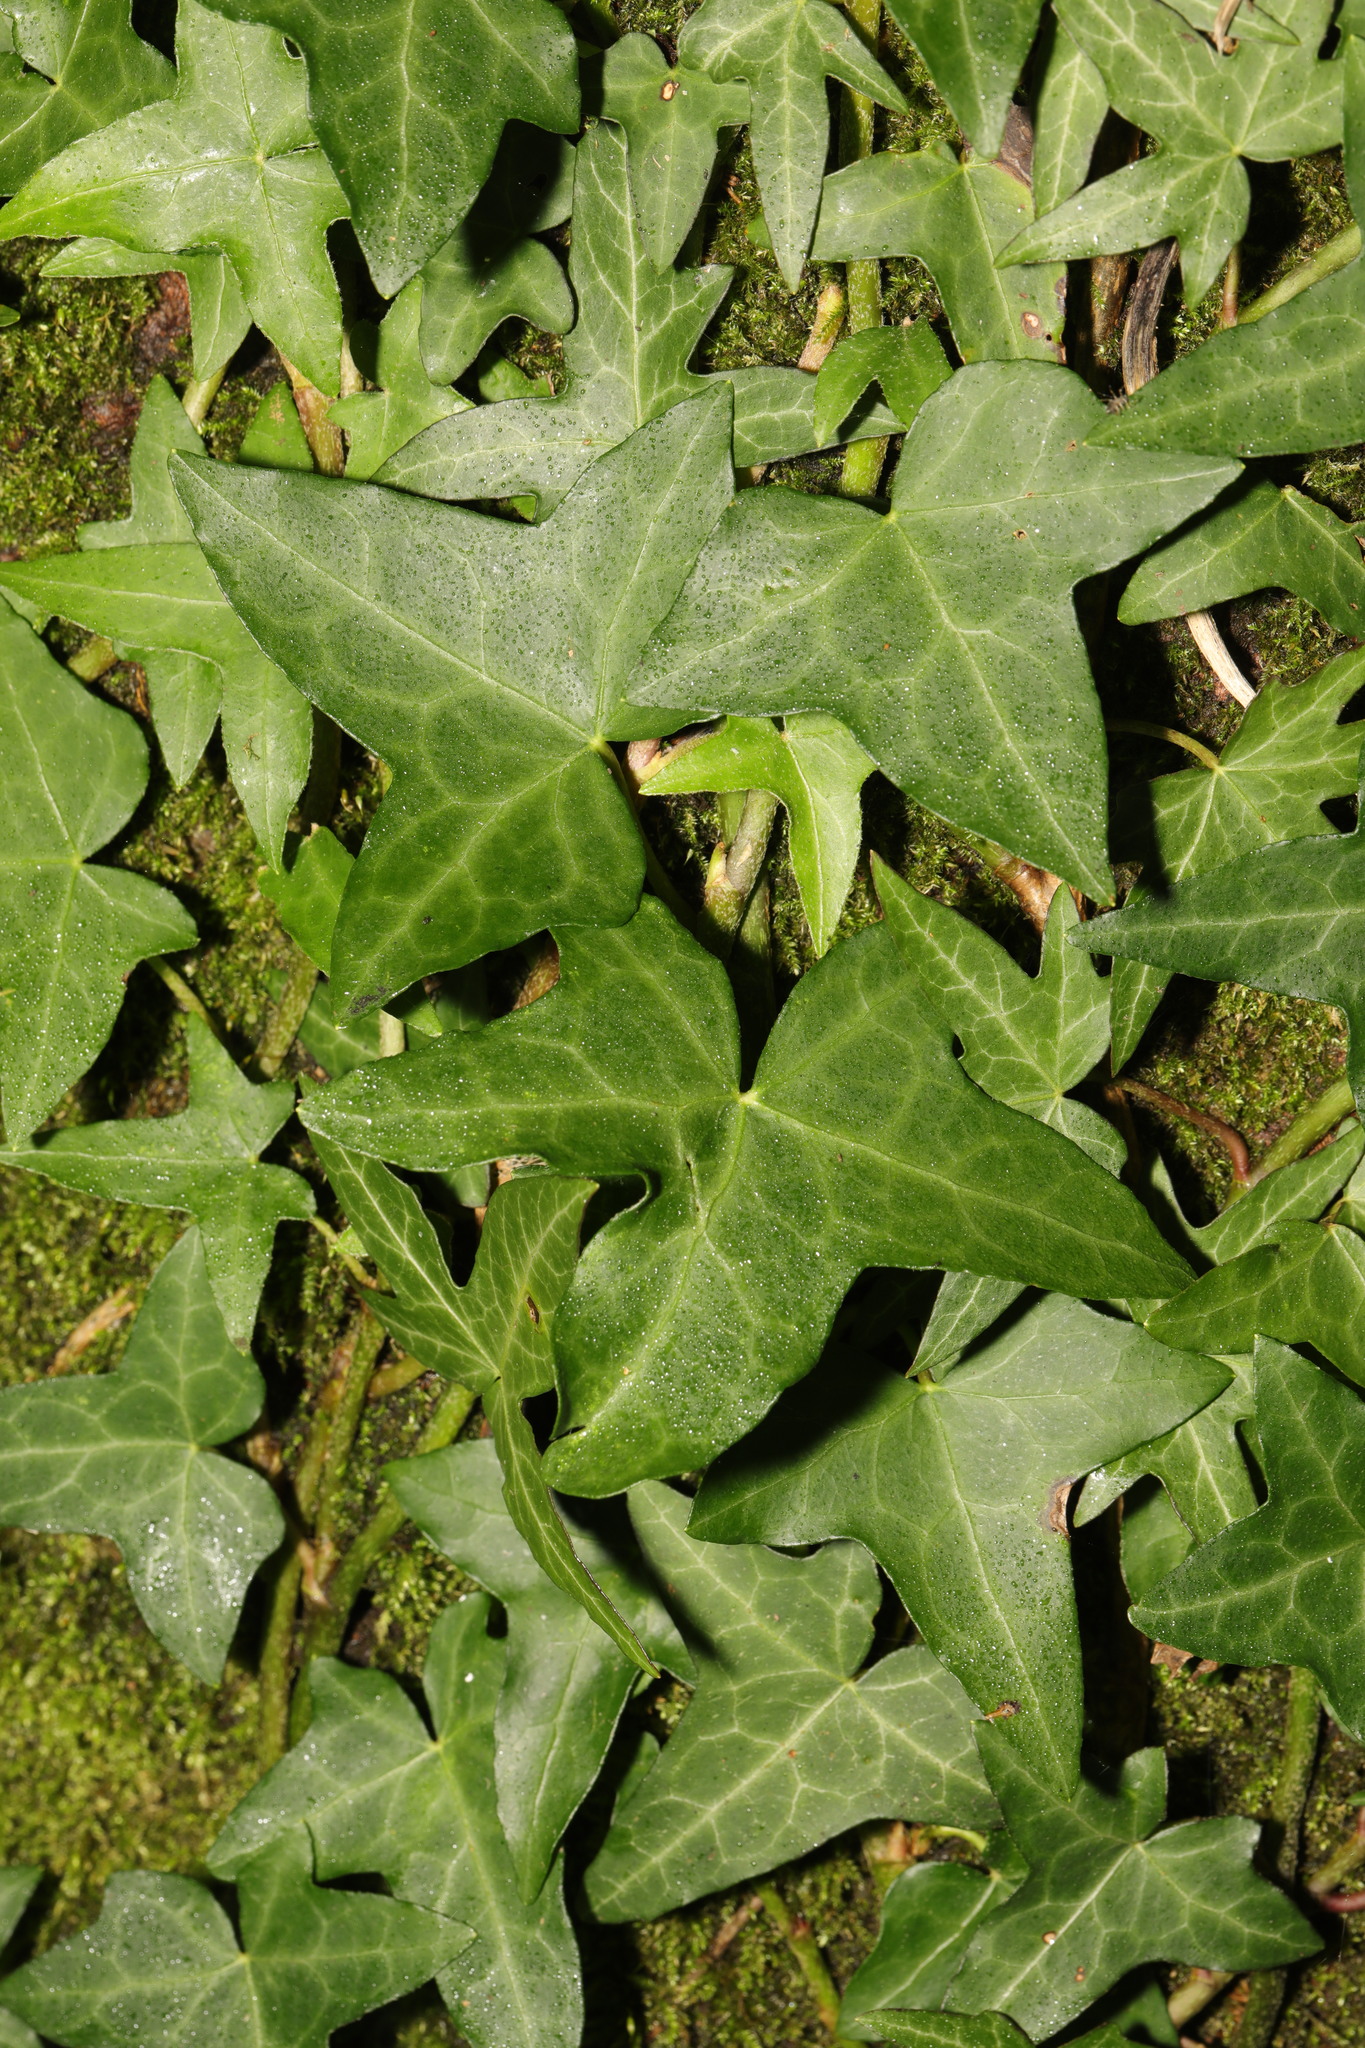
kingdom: Plantae
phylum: Tracheophyta
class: Magnoliopsida
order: Apiales
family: Araliaceae
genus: Hedera
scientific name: Hedera helix
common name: Ivy
